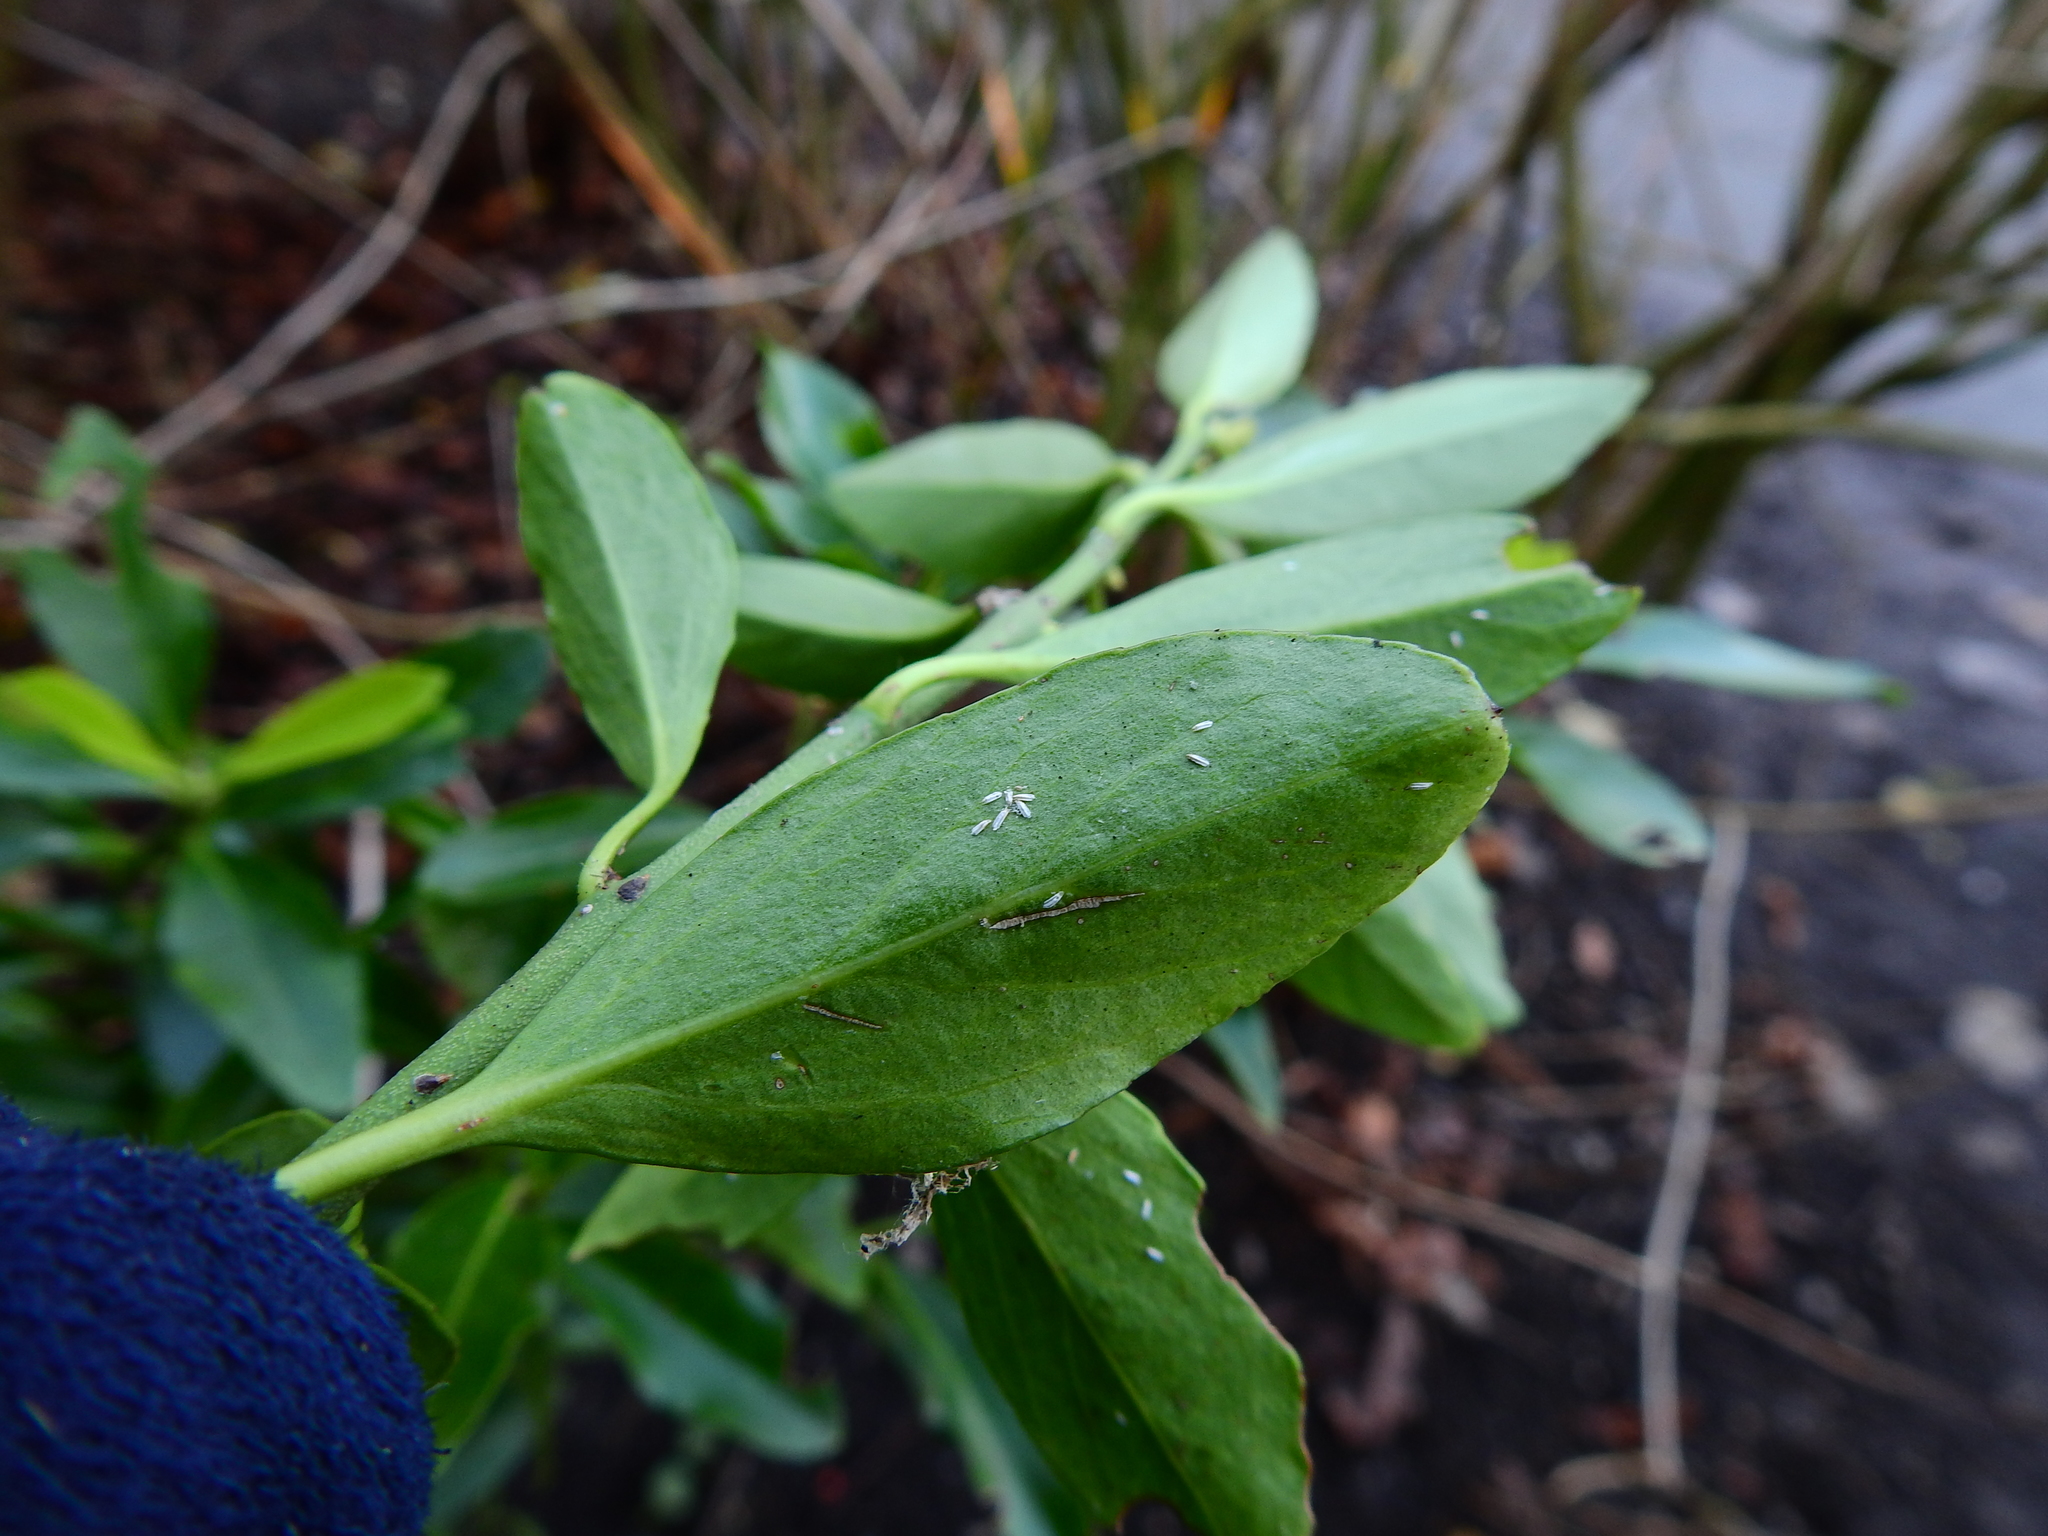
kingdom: Animalia
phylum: Arthropoda
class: Insecta
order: Hemiptera
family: Diaspididae
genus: Unaspis
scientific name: Unaspis euonymi
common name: Euonymus scale
